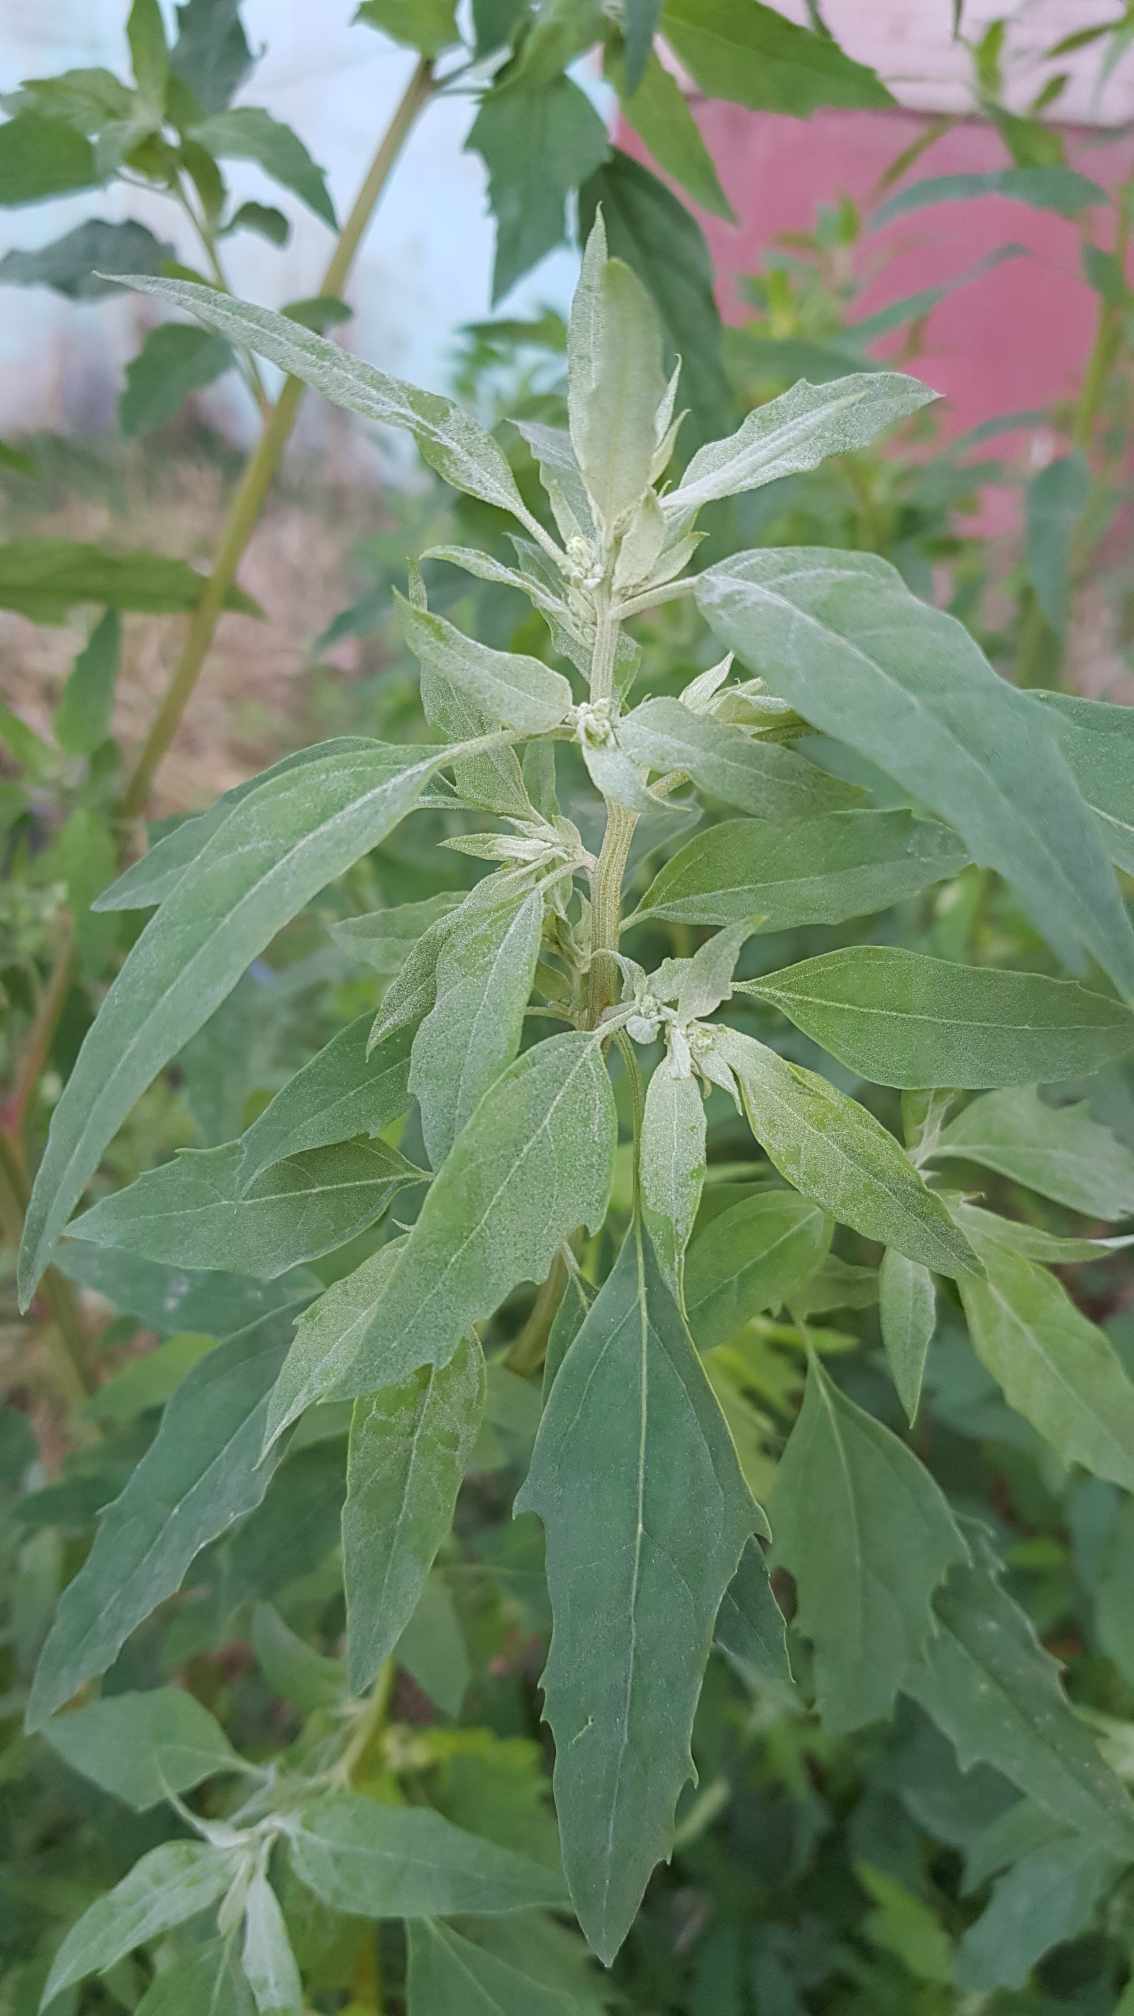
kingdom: Plantae
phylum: Tracheophyta
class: Magnoliopsida
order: Caryophyllales
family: Amaranthaceae
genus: Chenopodium
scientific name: Chenopodium album
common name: Fat-hen
